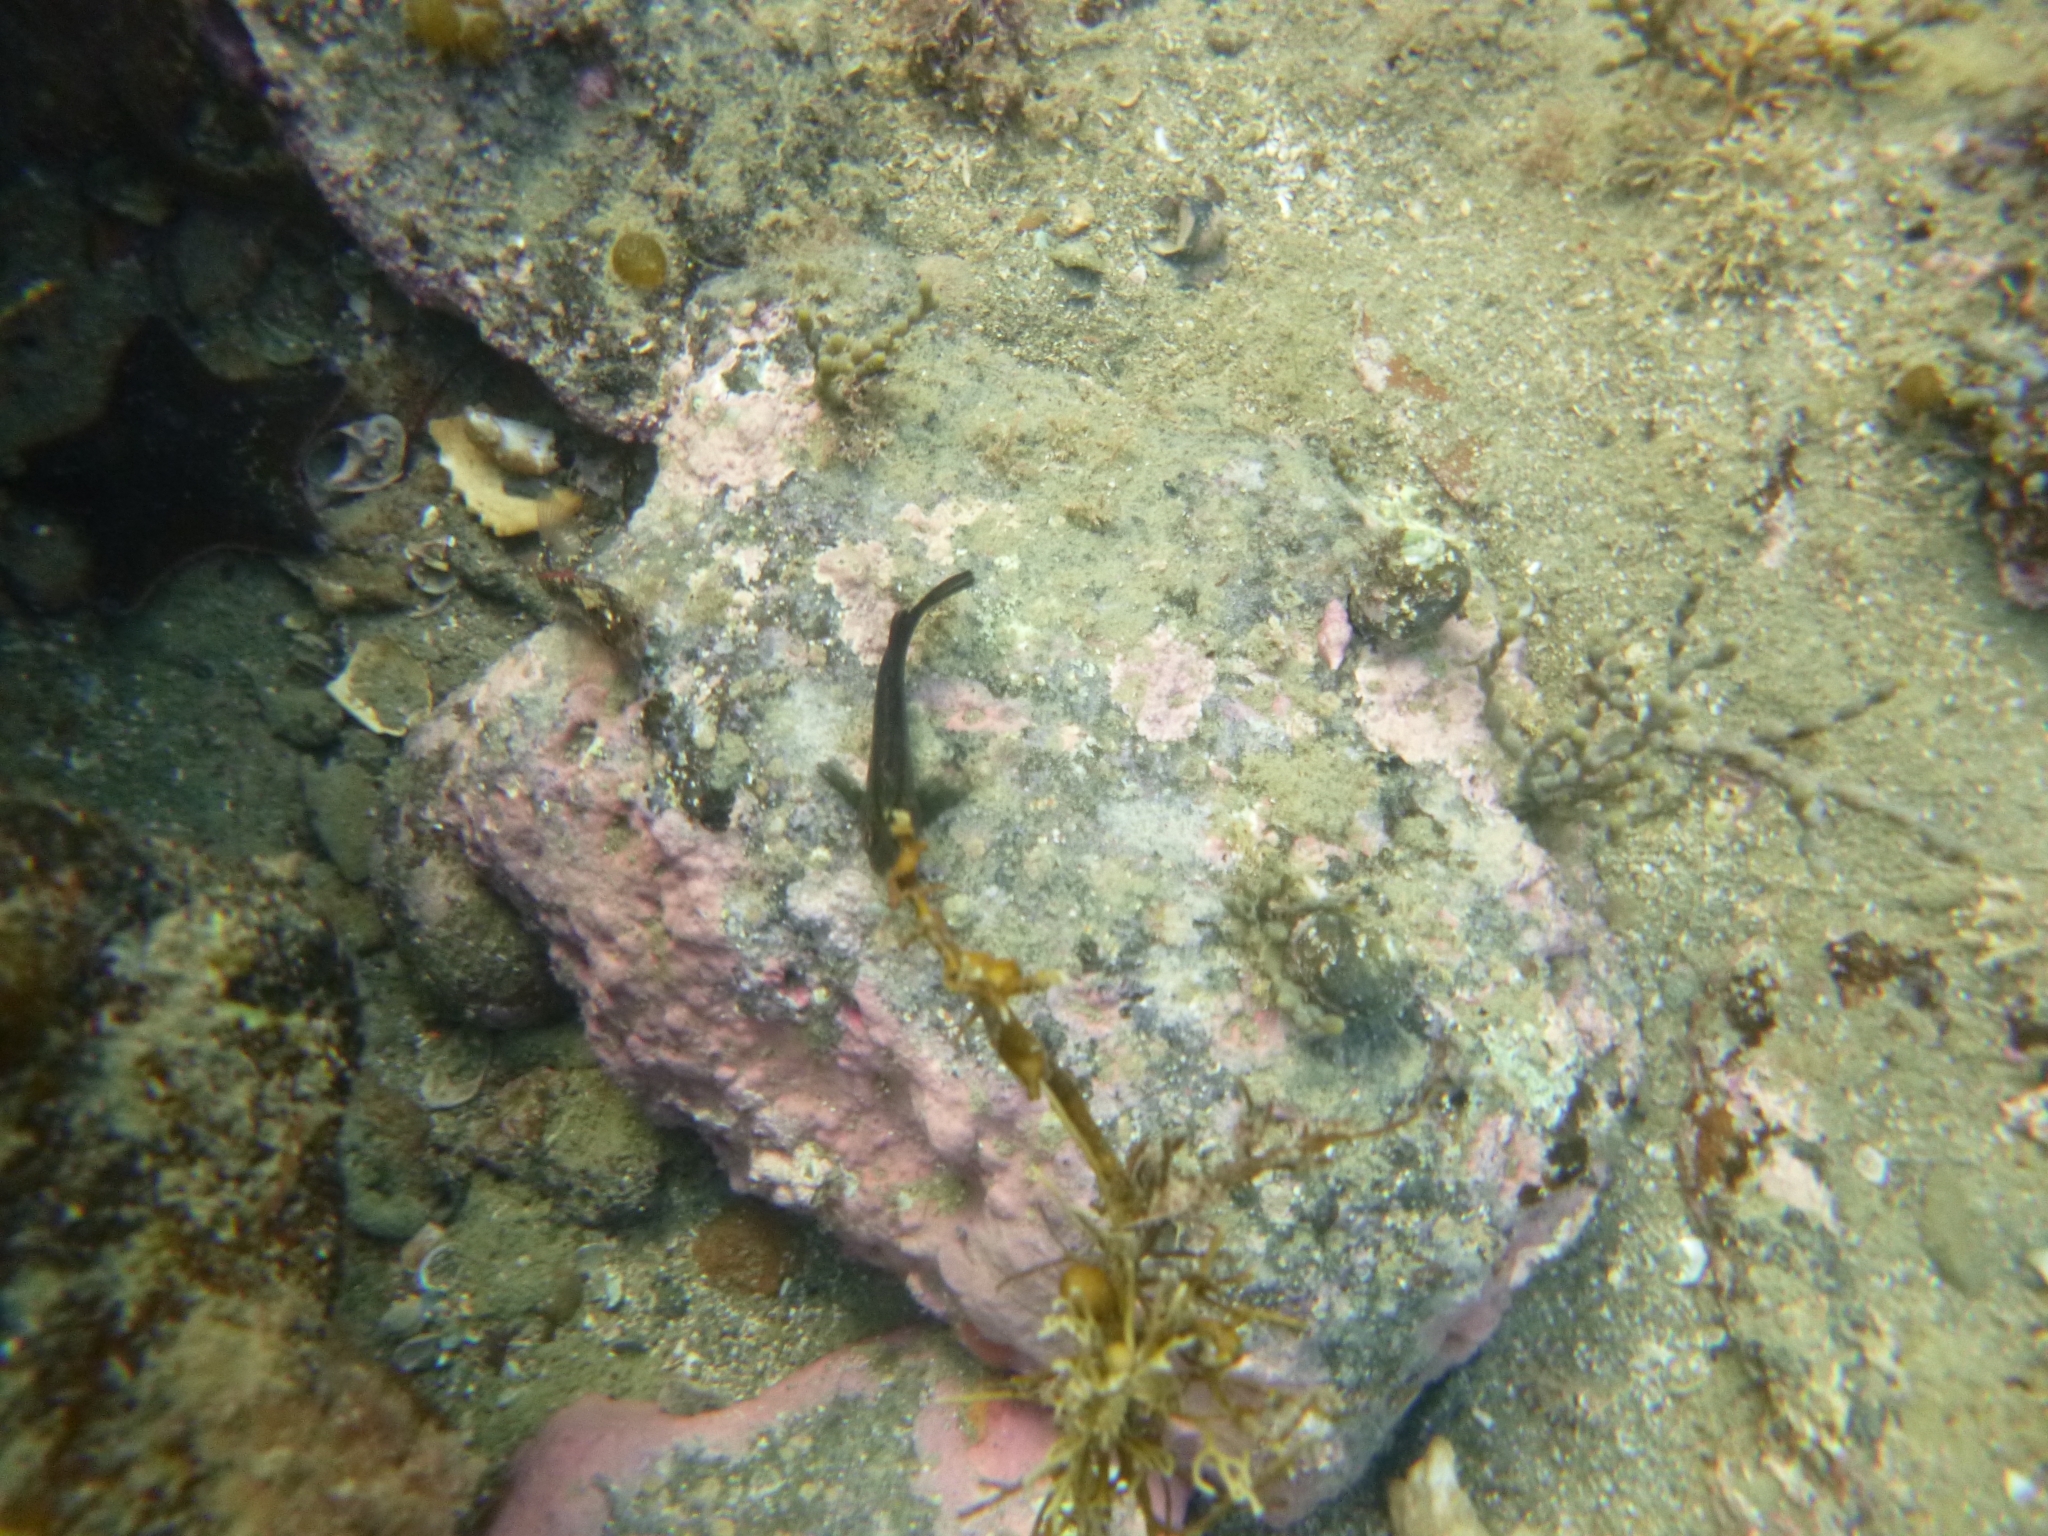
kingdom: Animalia
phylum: Chordata
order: Perciformes
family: Tripterygiidae
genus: Forsterygion
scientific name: Forsterygion lapillum
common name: Common triplefin
